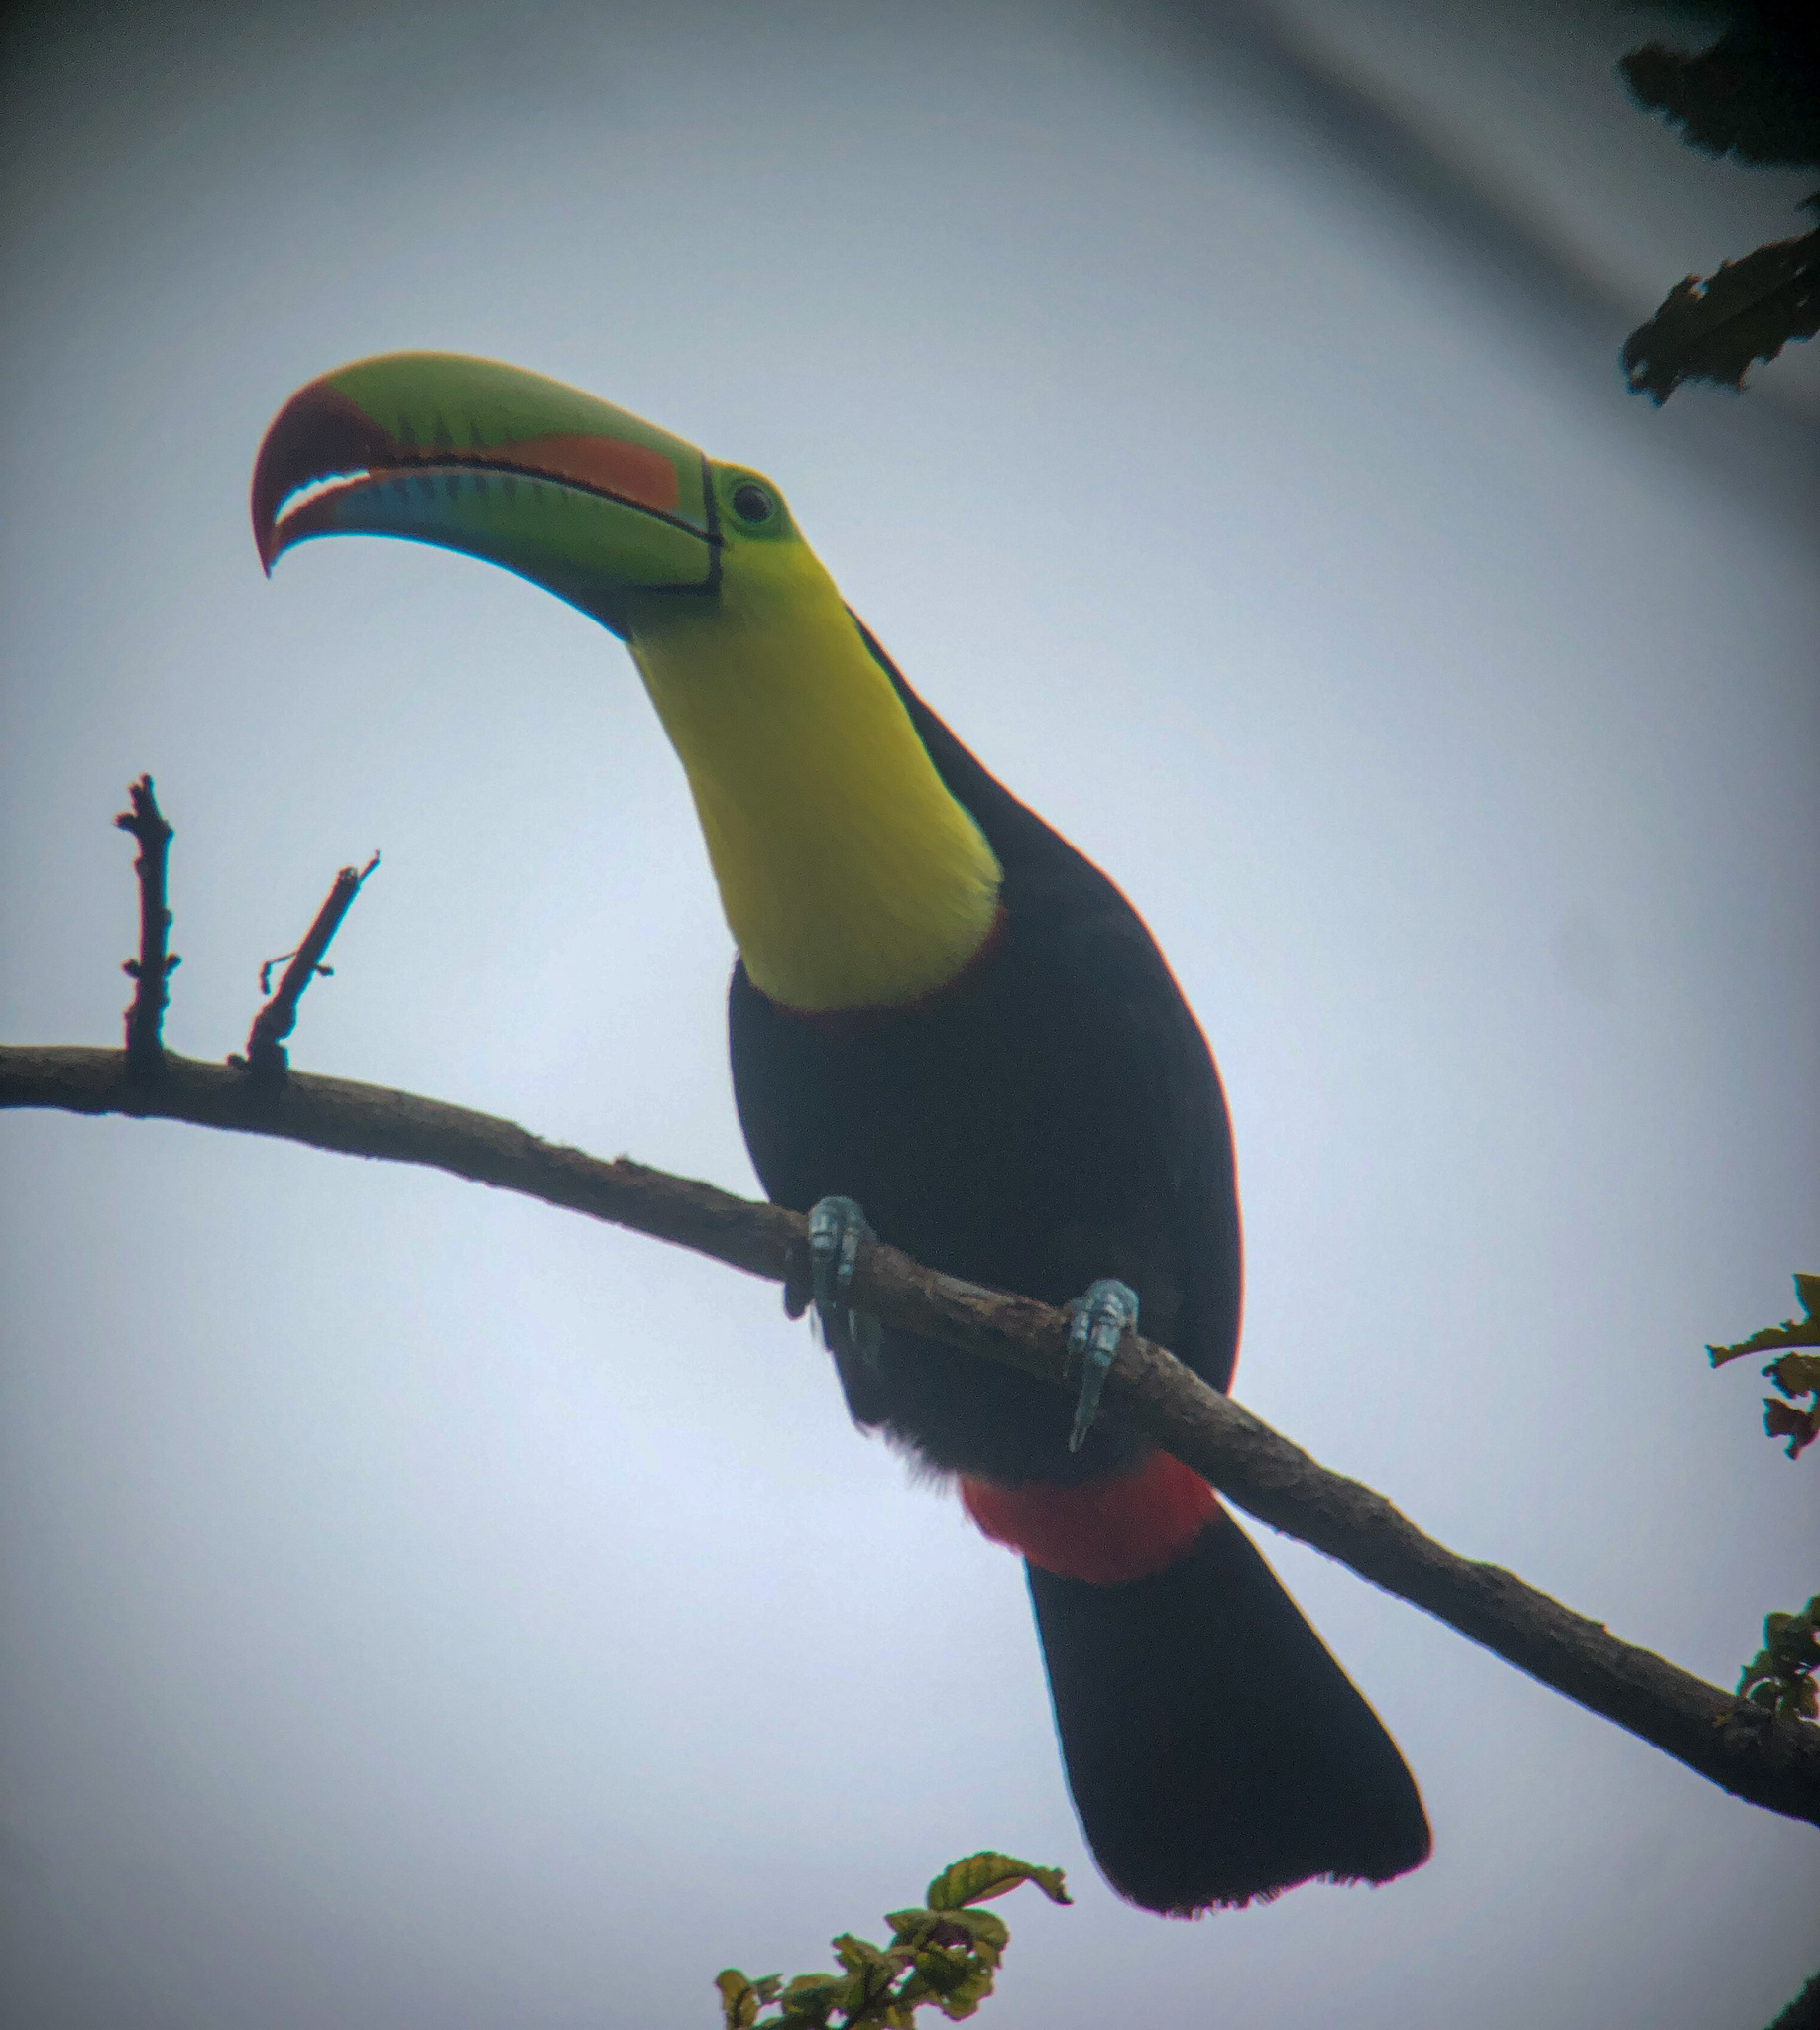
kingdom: Animalia
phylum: Chordata
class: Aves
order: Piciformes
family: Ramphastidae
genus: Ramphastos
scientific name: Ramphastos sulfuratus
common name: Keel-billed toucan
